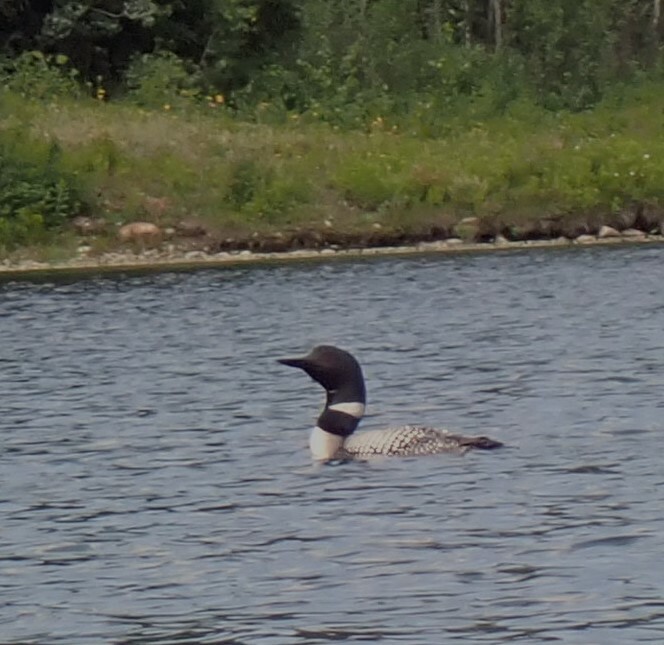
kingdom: Animalia
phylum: Chordata
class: Aves
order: Gaviiformes
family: Gaviidae
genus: Gavia
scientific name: Gavia immer
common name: Common loon
